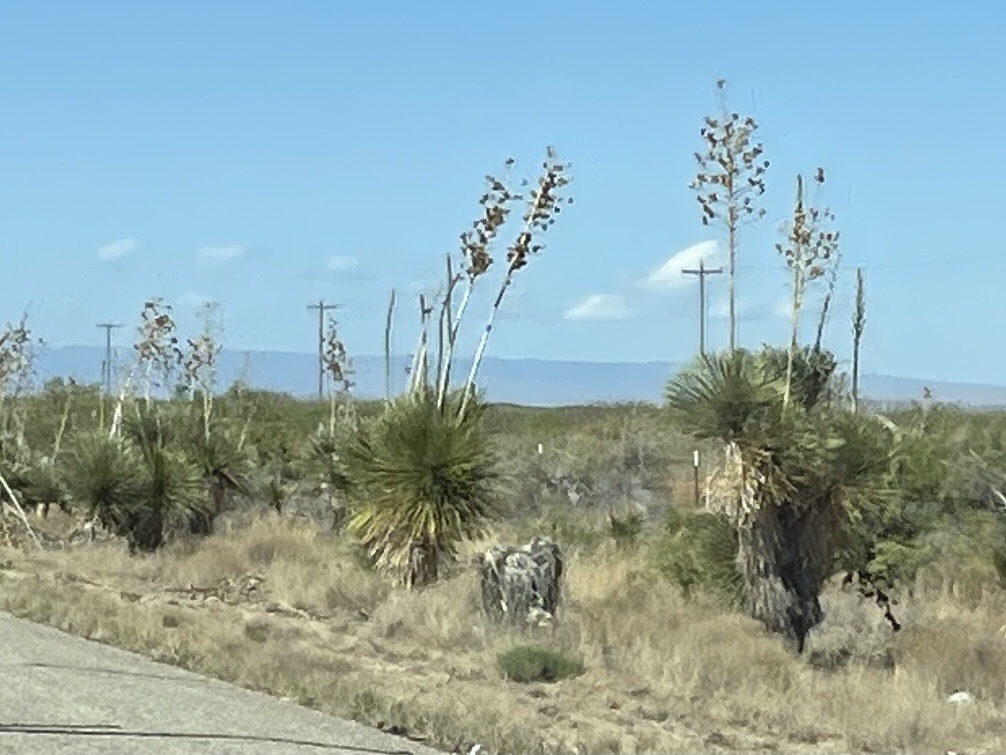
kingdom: Plantae
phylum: Tracheophyta
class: Liliopsida
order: Asparagales
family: Asparagaceae
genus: Yucca
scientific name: Yucca elata
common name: Palmella
